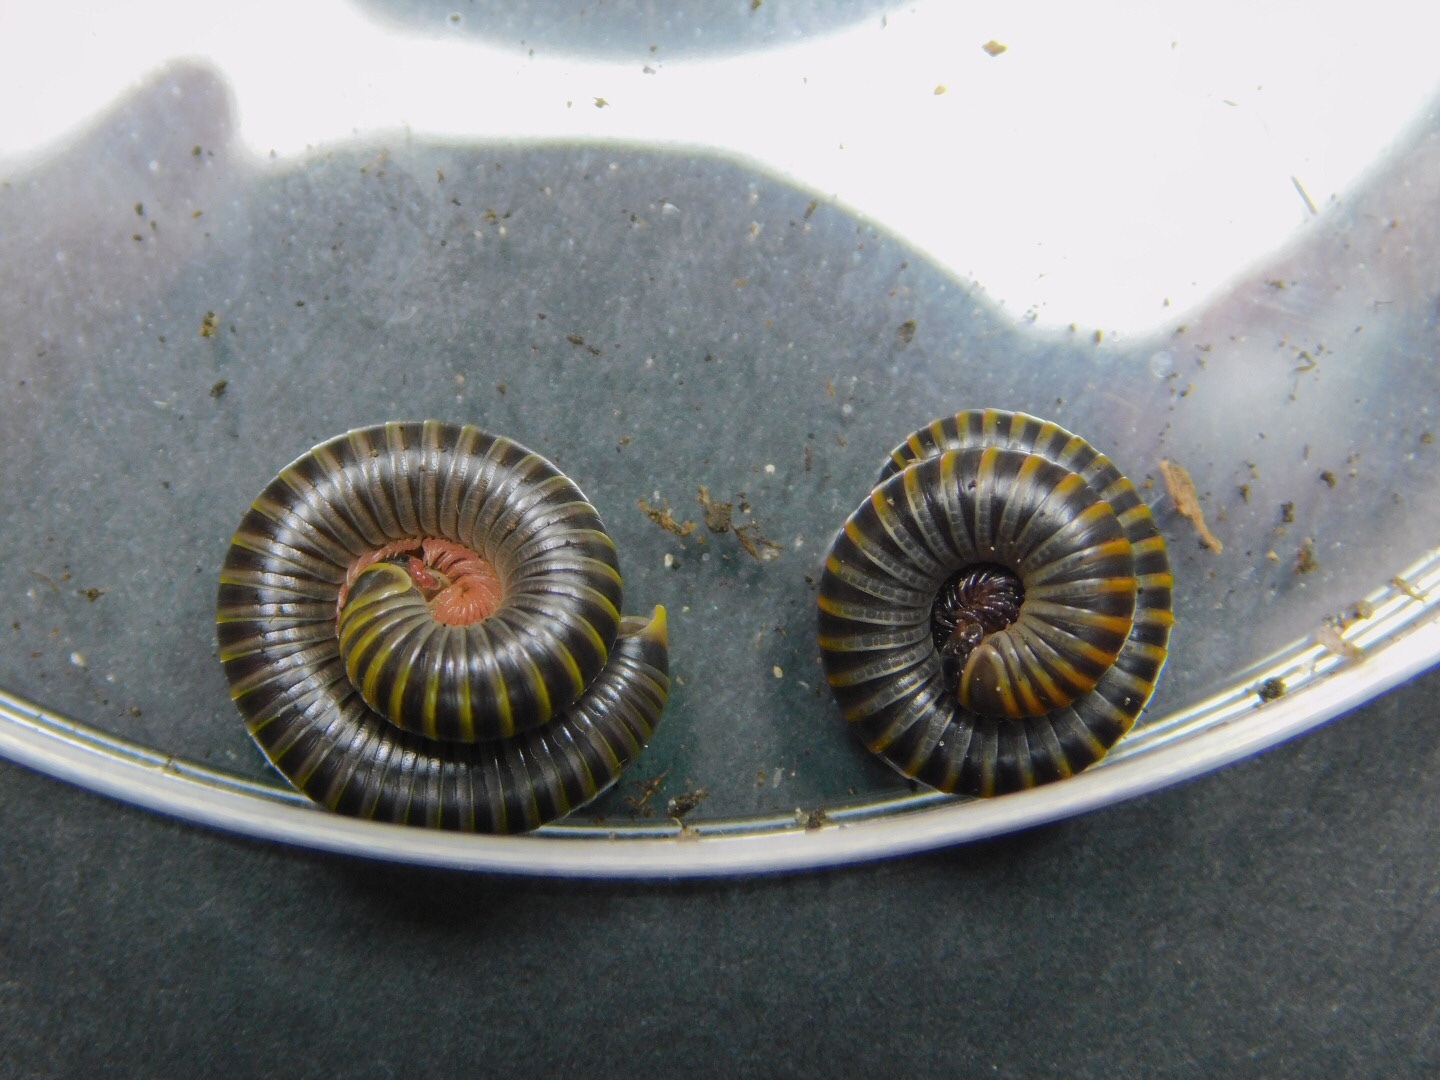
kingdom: Animalia
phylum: Arthropoda
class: Diplopoda
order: Spirobolida
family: Rhinocricidae
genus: Anadenobolus
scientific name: Anadenobolus monilicornis
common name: Caribbean millipede
